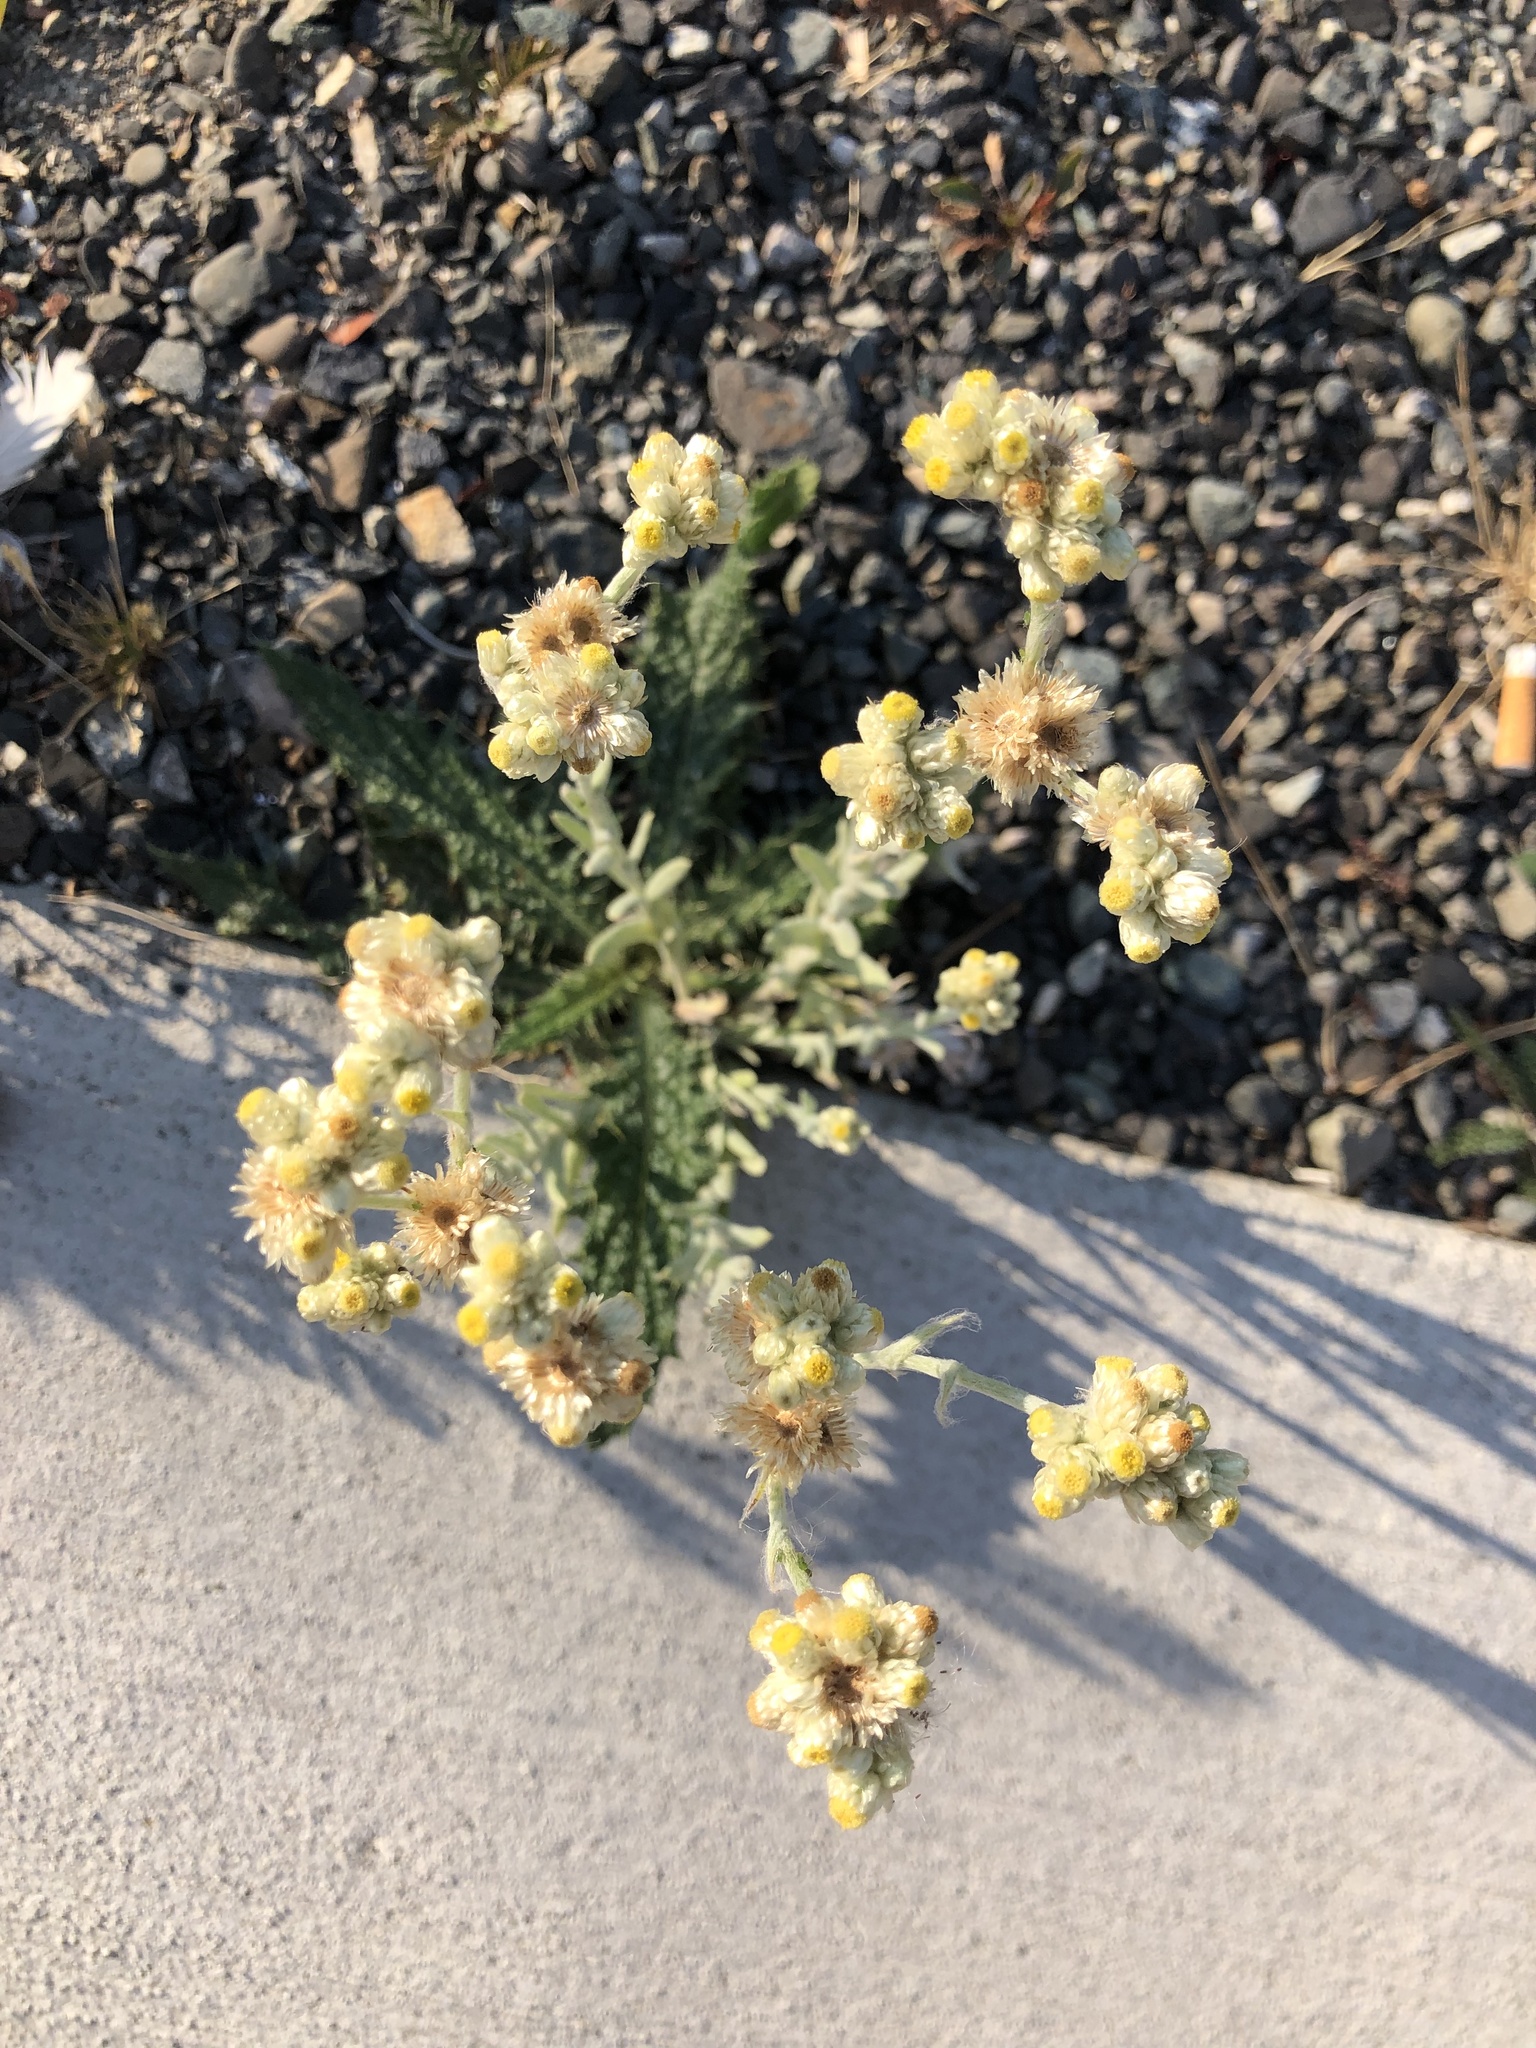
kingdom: Plantae
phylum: Tracheophyta
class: Magnoliopsida
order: Asterales
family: Asteraceae
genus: Pseudognaphalium
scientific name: Pseudognaphalium stramineum
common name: Cotton-batting-plant
